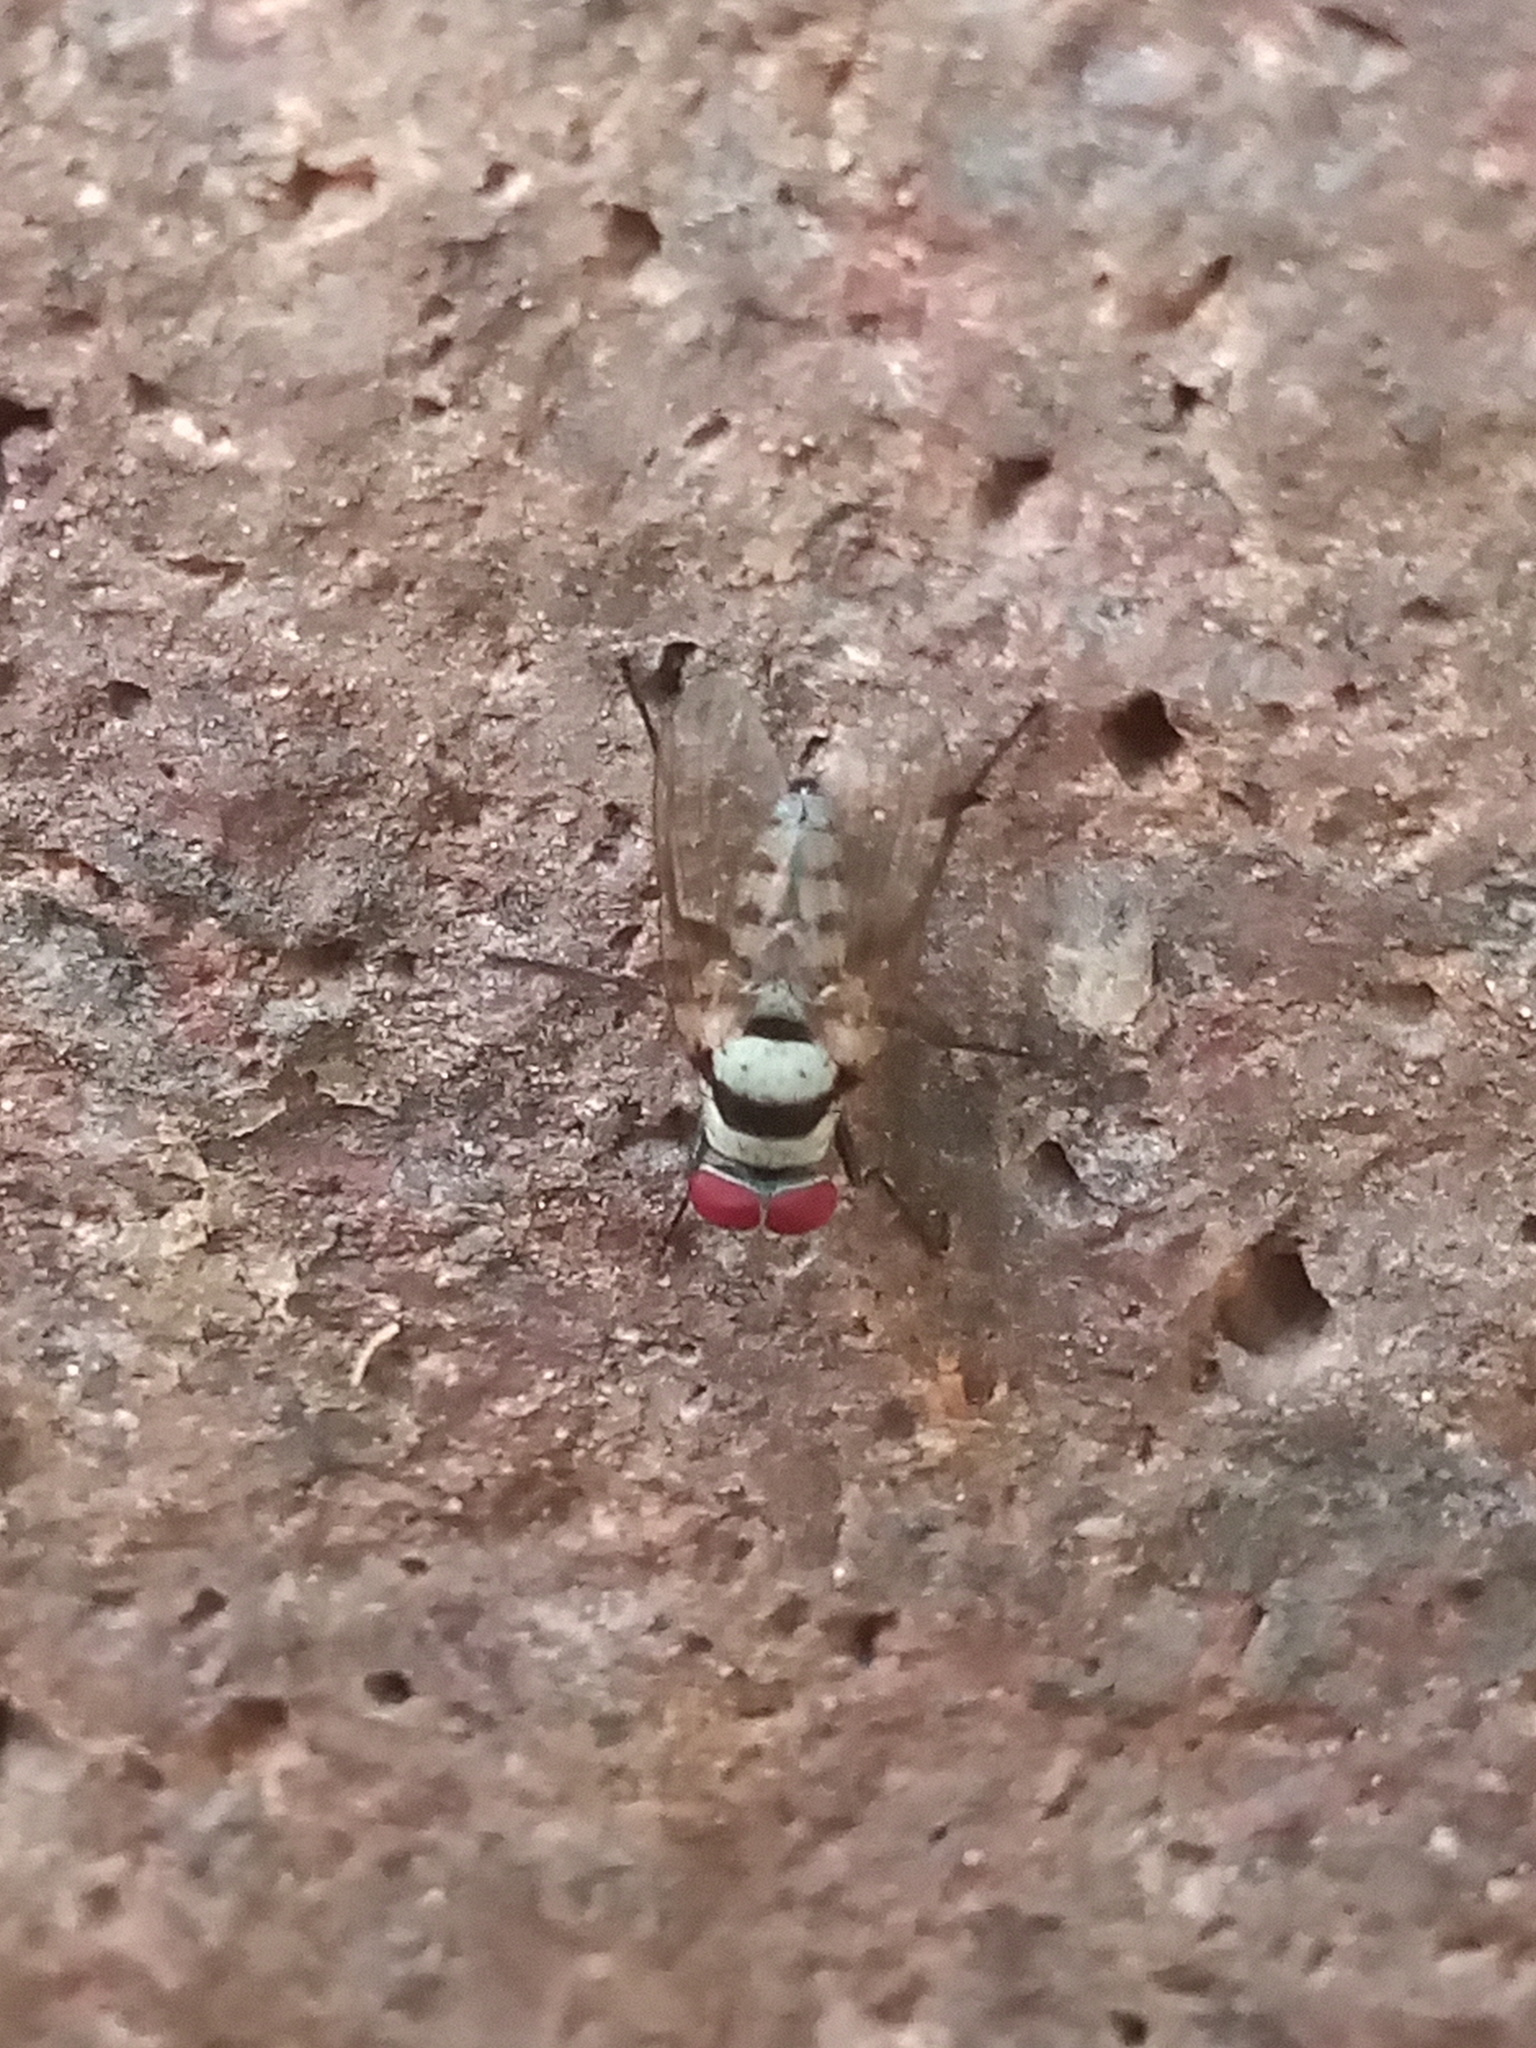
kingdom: Animalia
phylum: Arthropoda
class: Insecta
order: Diptera
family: Anthomyiidae
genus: Anthomyia
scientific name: Anthomyia illocata
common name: Fly
